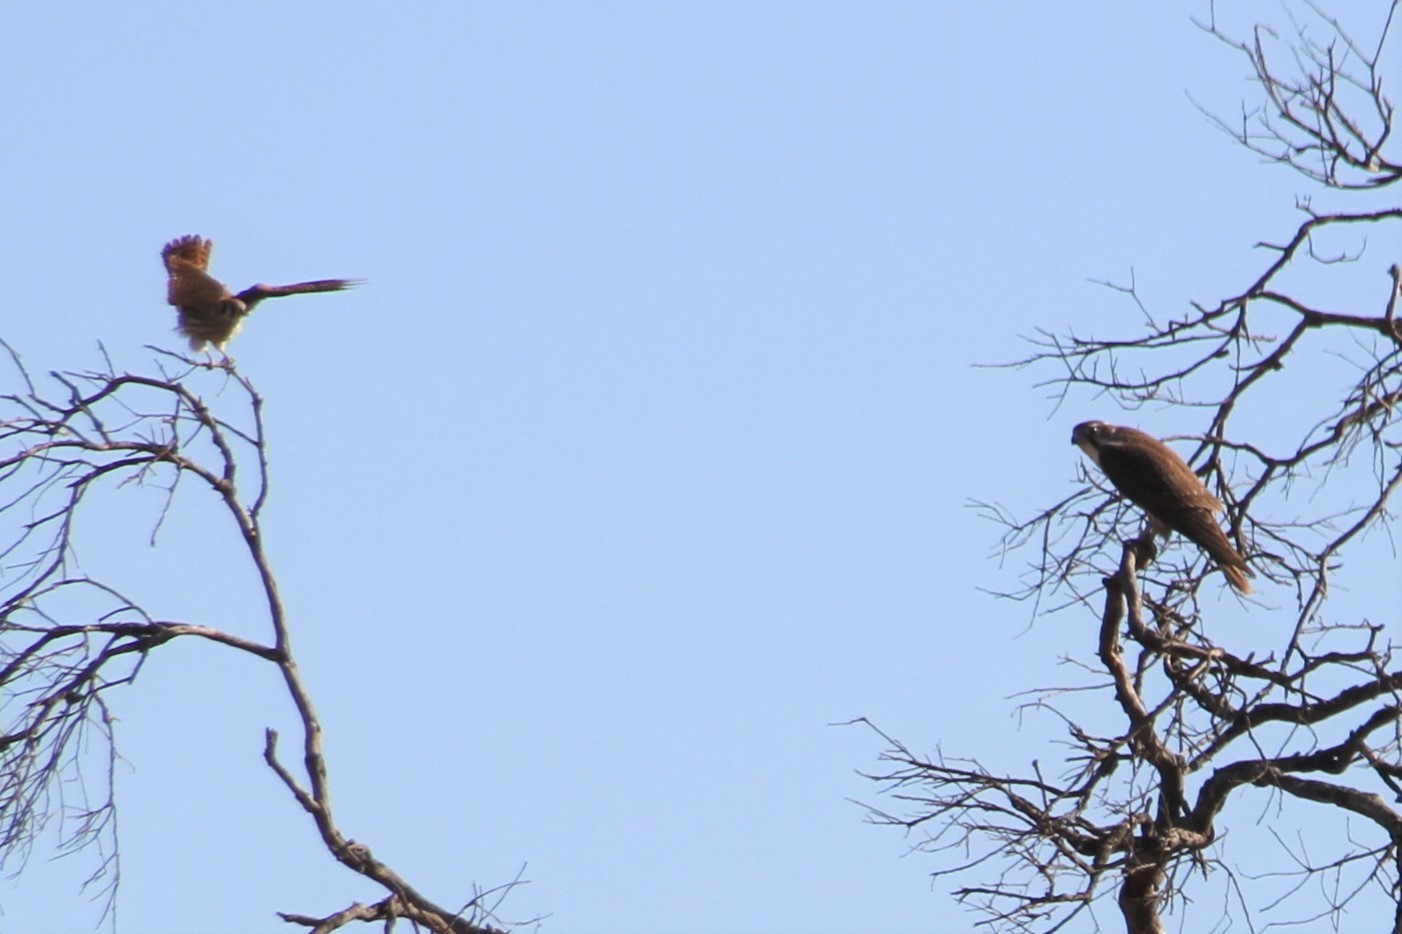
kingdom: Animalia
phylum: Chordata
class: Aves
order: Falconiformes
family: Falconidae
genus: Falco
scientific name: Falco sparverius
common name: American kestrel
